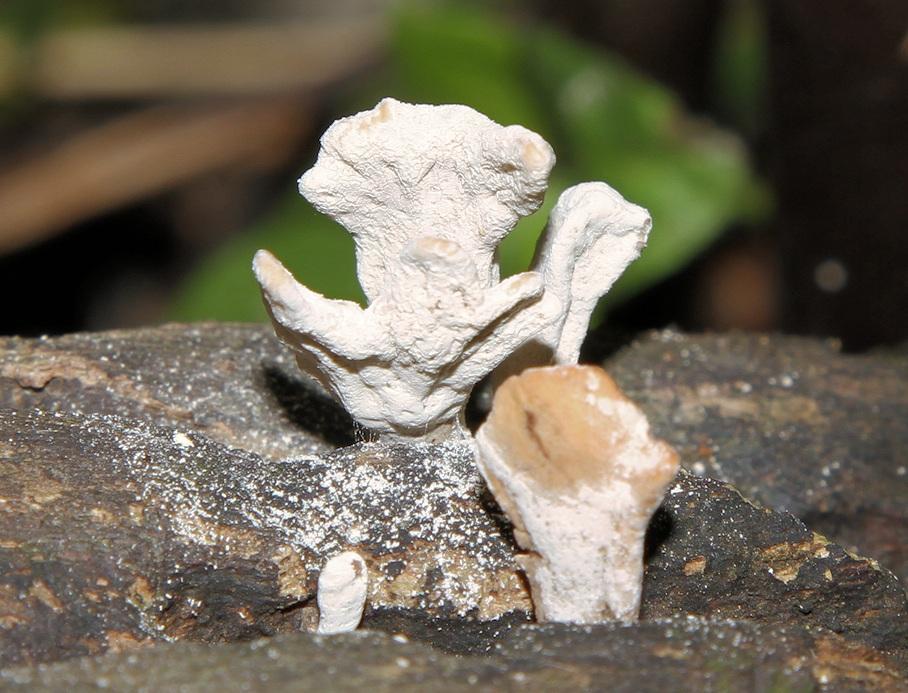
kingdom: Fungi
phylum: Ascomycota
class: Sordariomycetes
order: Xylariales
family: Xylariaceae
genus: Xylaria
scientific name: Xylaria hypoxylon
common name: Candle-snuff fungus
